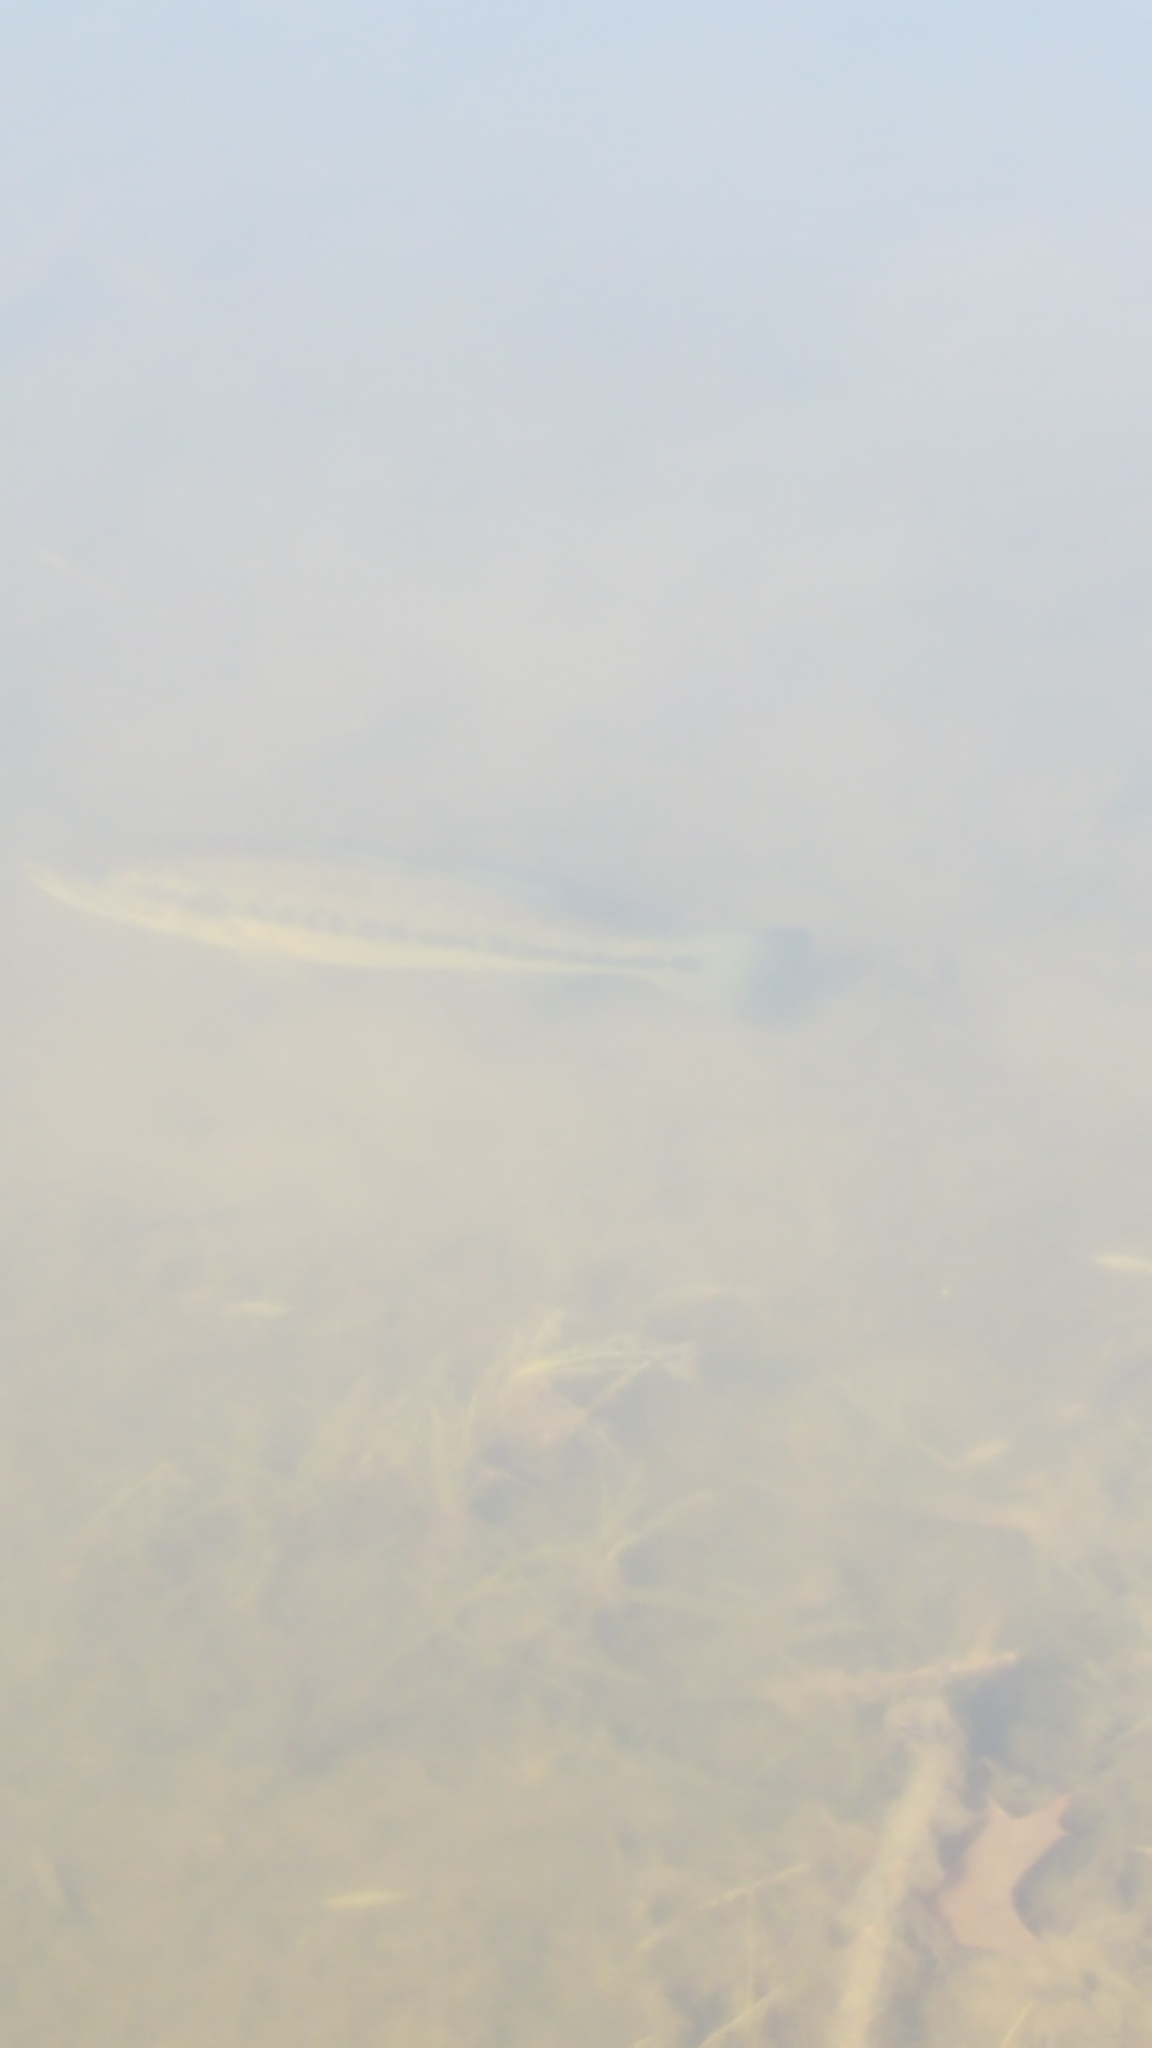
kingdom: Animalia
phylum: Chordata
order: Perciformes
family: Centrarchidae
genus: Micropterus
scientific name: Micropterus
